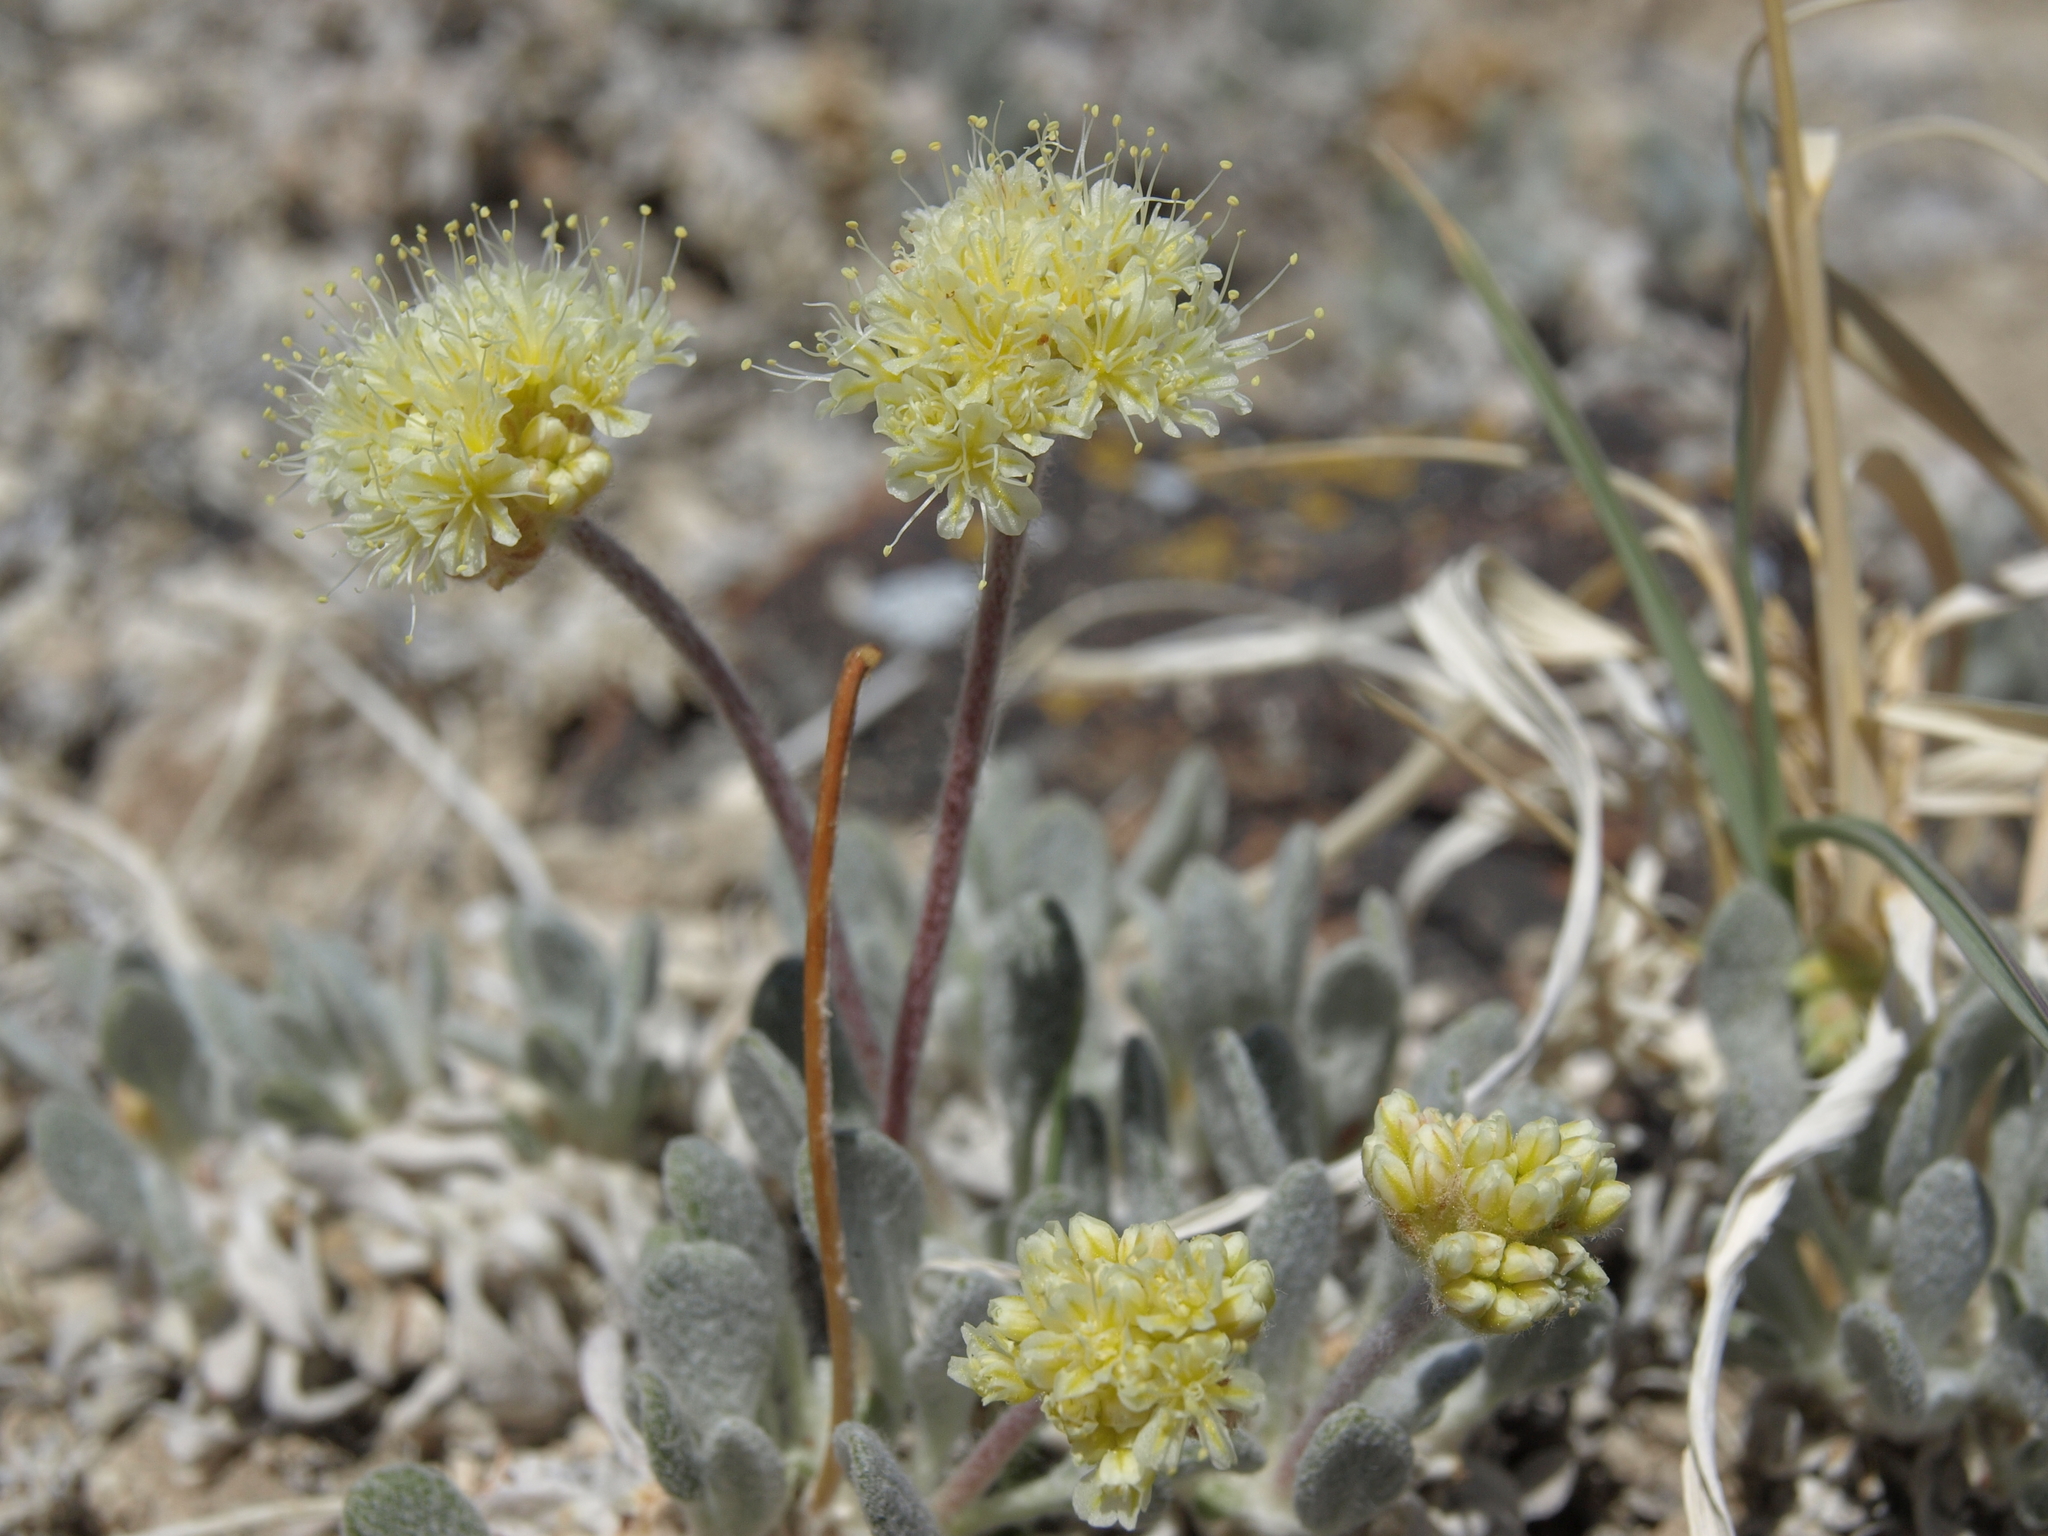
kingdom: Plantae
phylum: Tracheophyta
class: Magnoliopsida
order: Caryophyllales
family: Polygonaceae
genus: Eriogonum
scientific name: Eriogonum tiehmii
